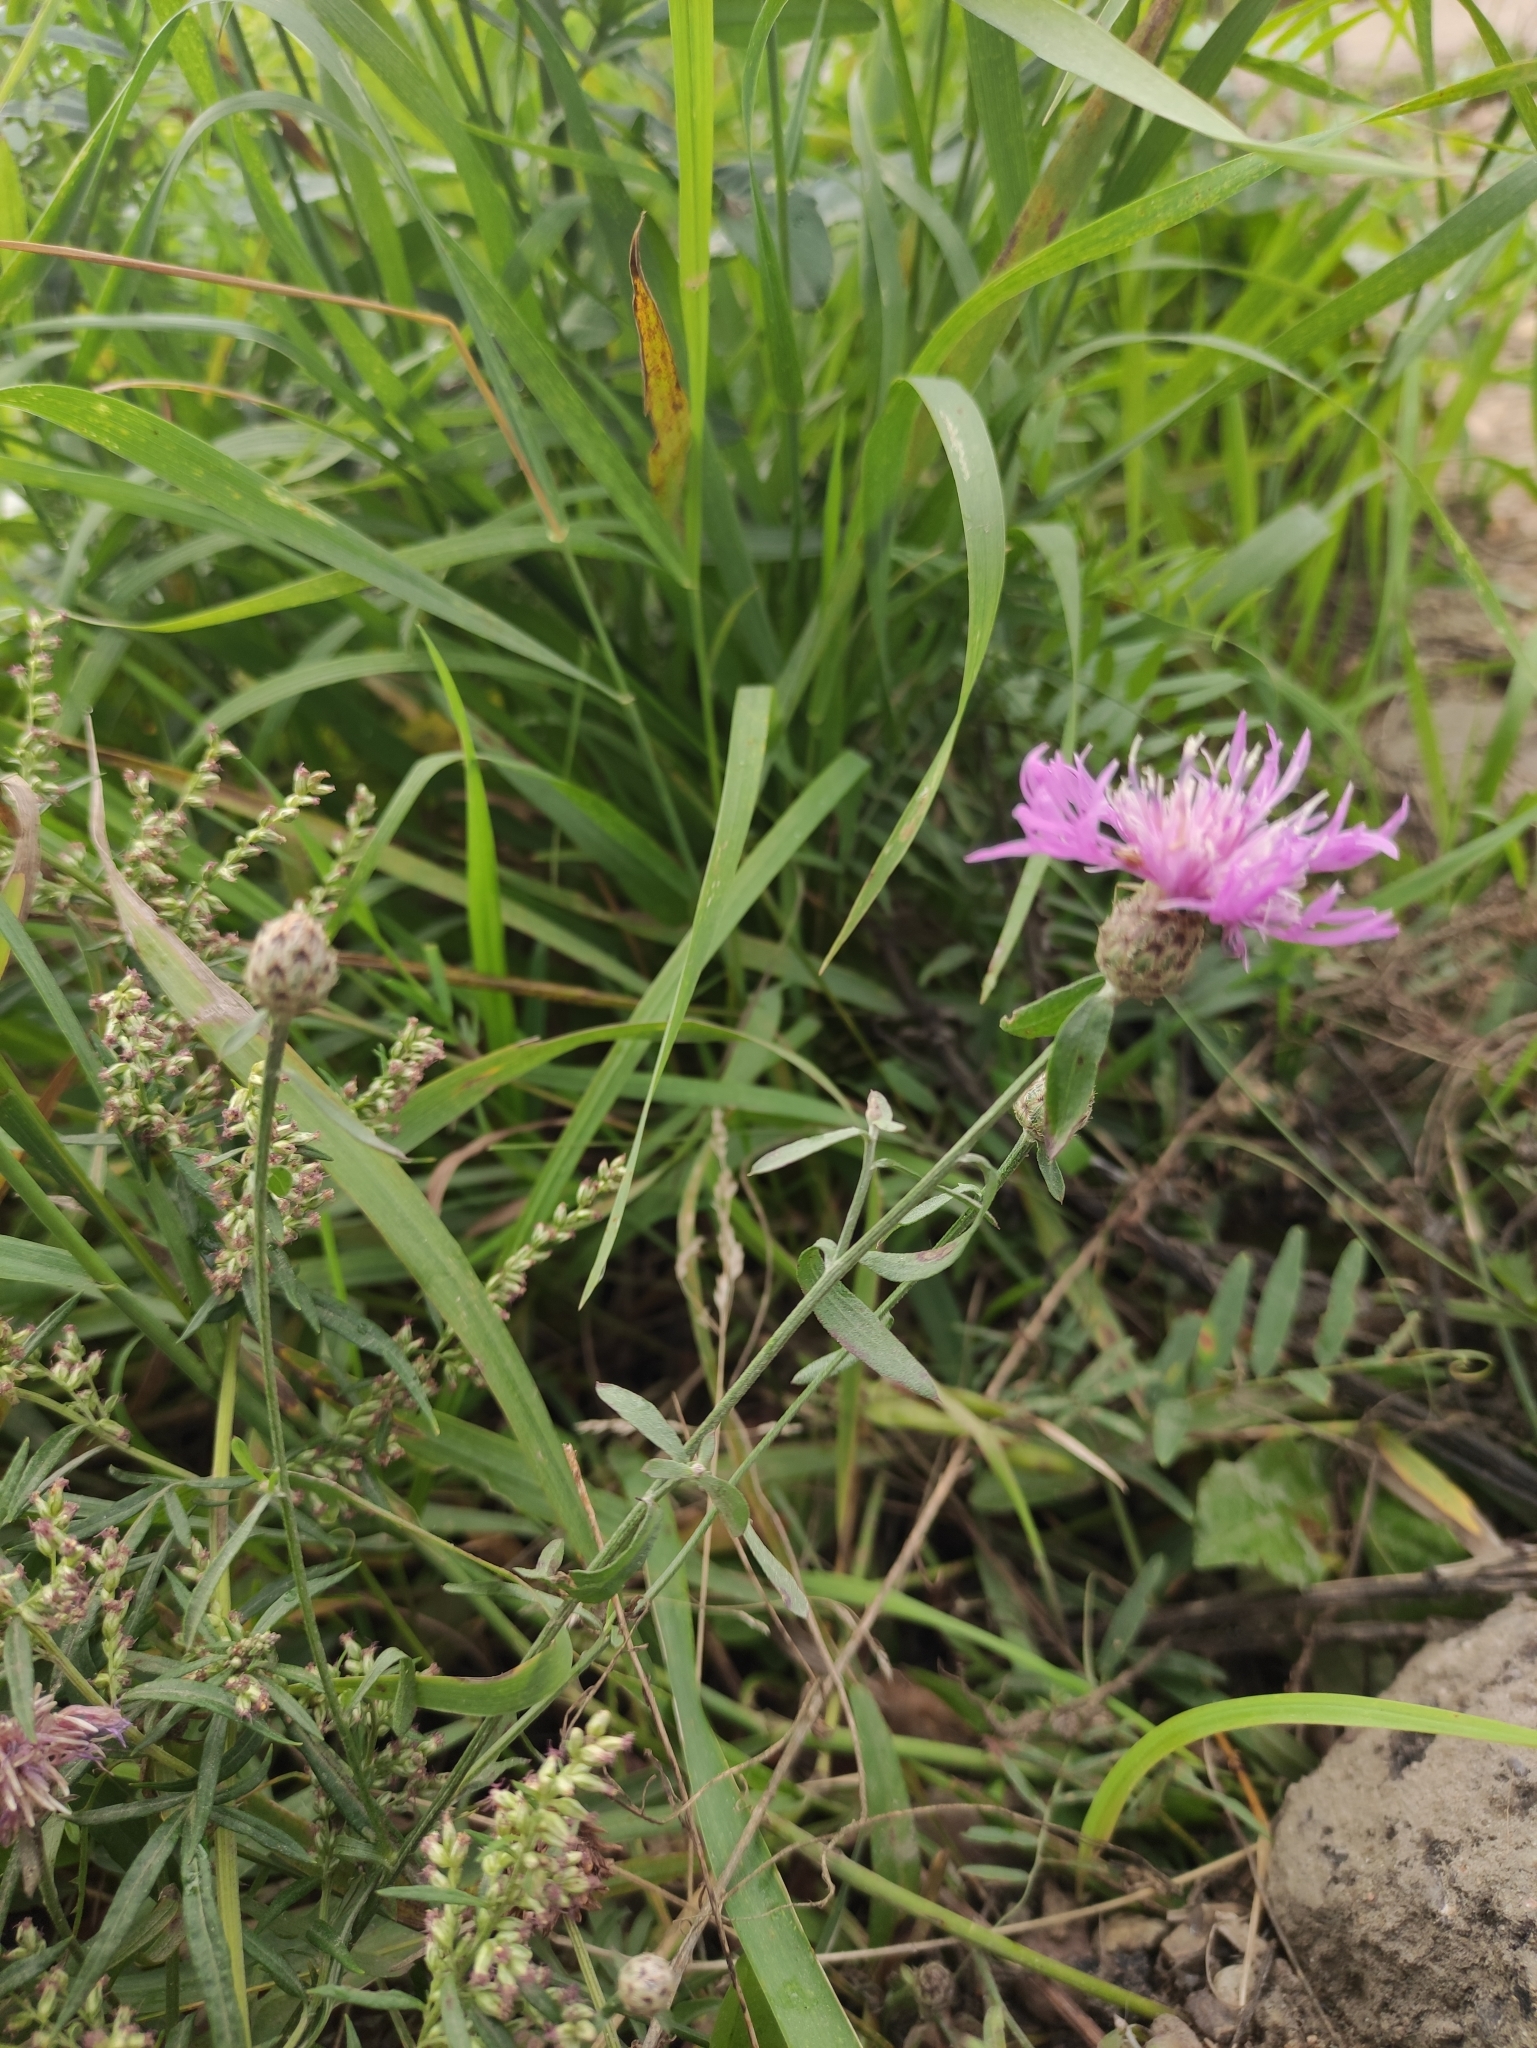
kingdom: Plantae
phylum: Tracheophyta
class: Magnoliopsida
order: Asterales
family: Asteraceae
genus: Centaurea
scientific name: Centaurea stoebe
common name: Spotted knapweed
